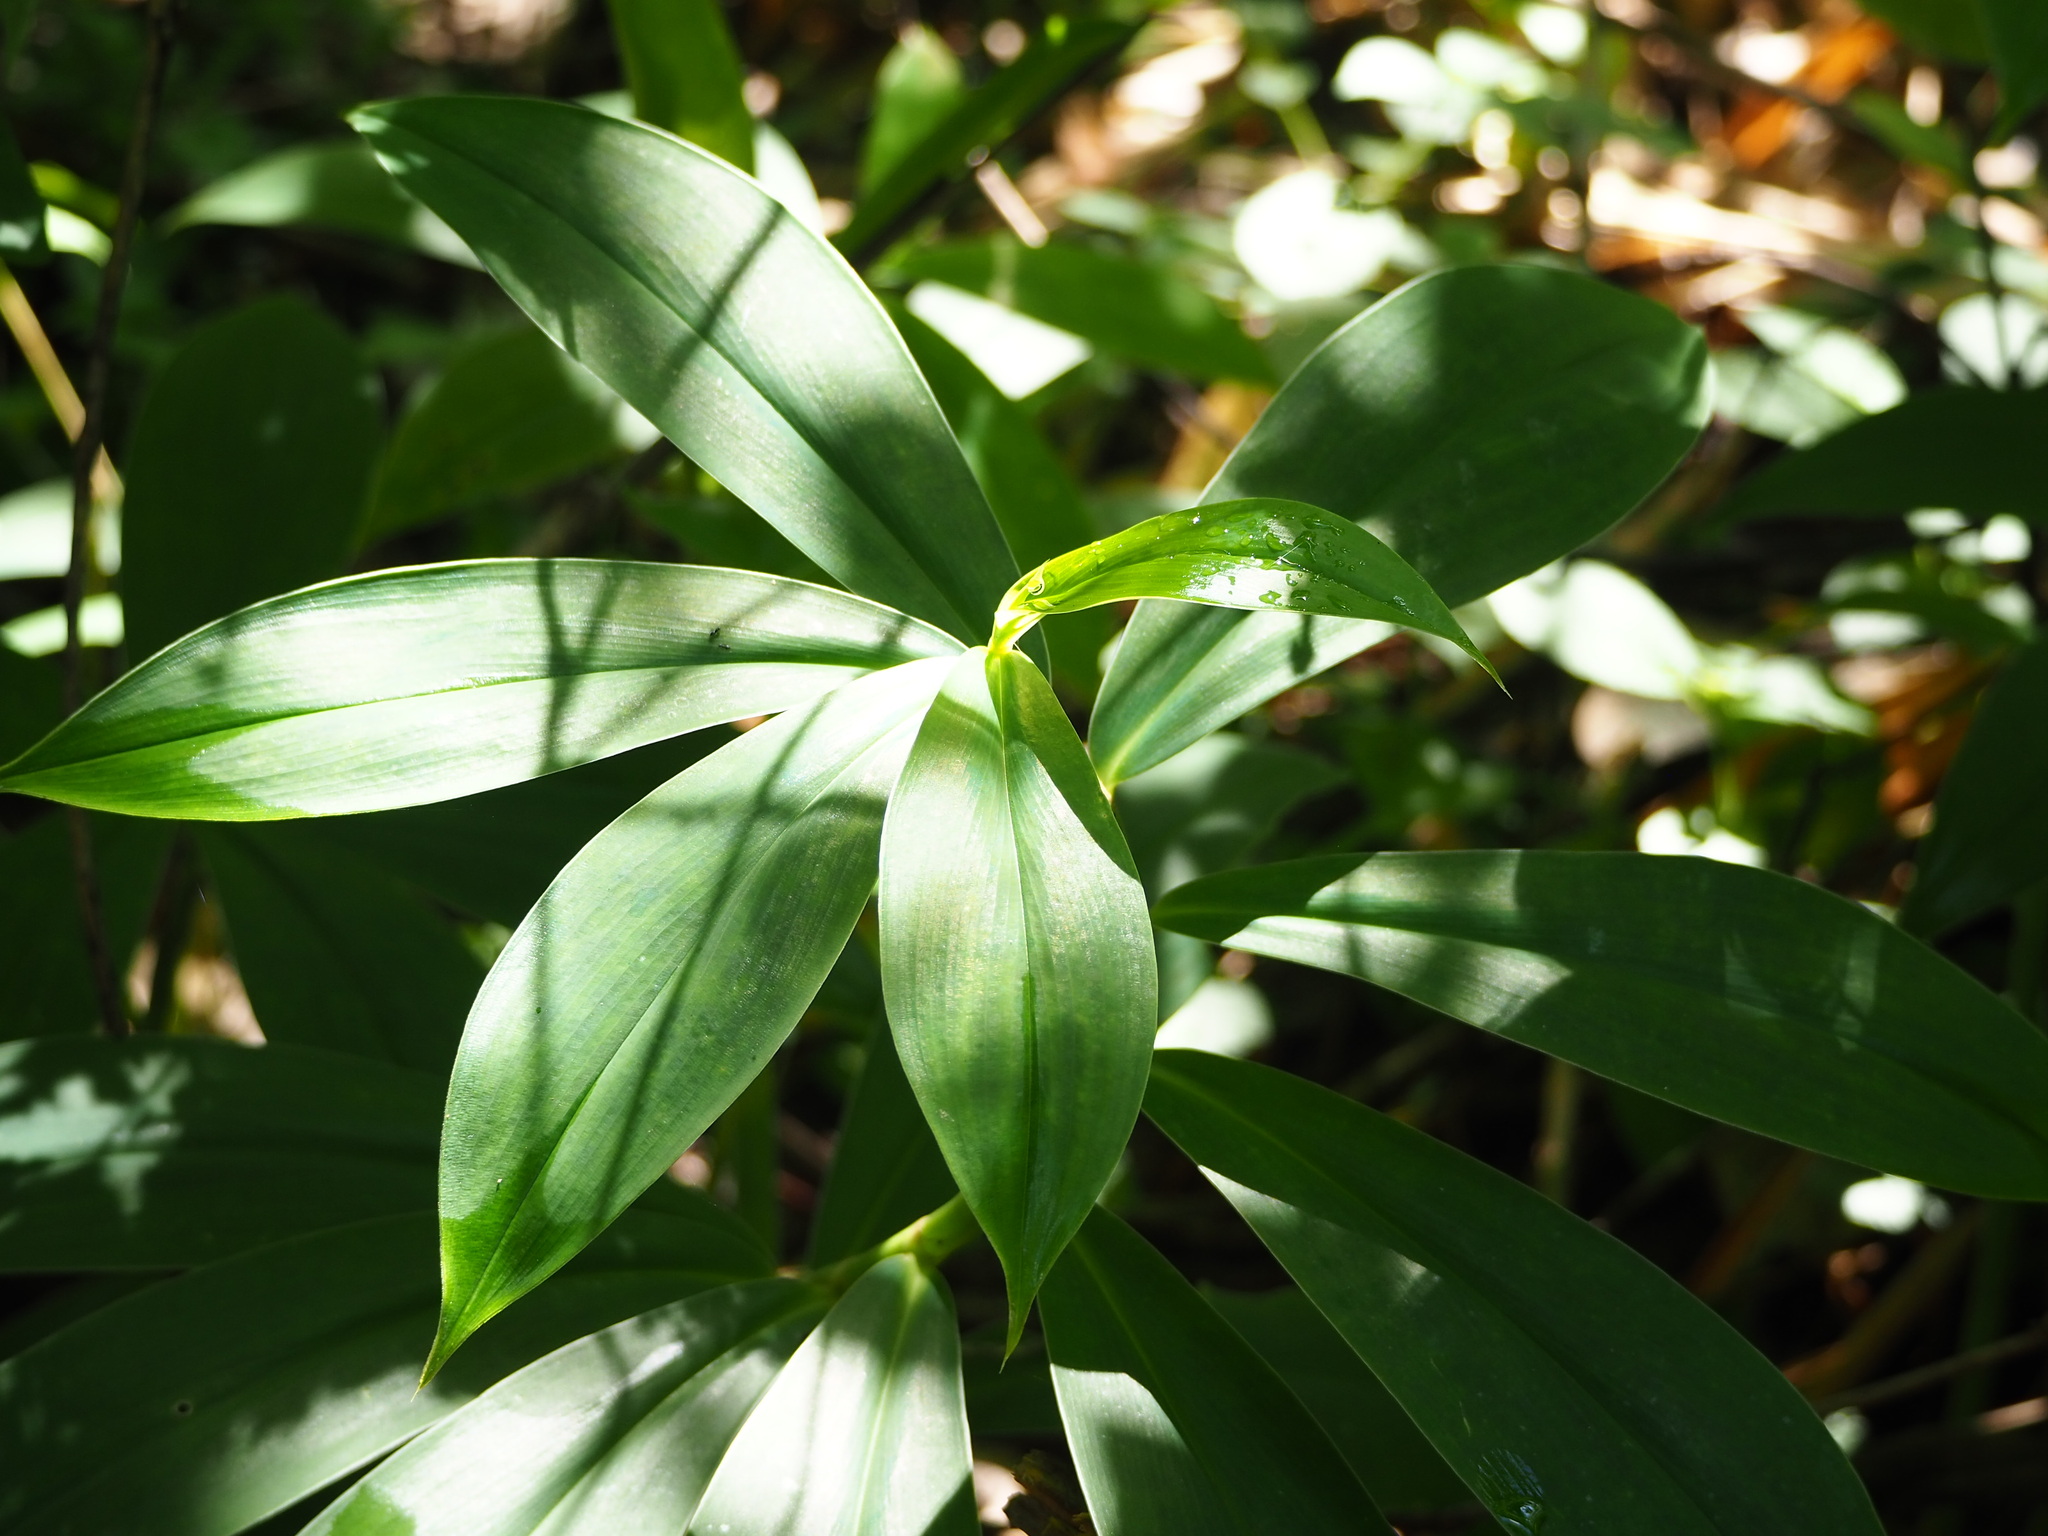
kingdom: Plantae
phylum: Tracheophyta
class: Liliopsida
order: Zingiberales
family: Costaceae
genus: Hellenia
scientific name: Hellenia speciosa
